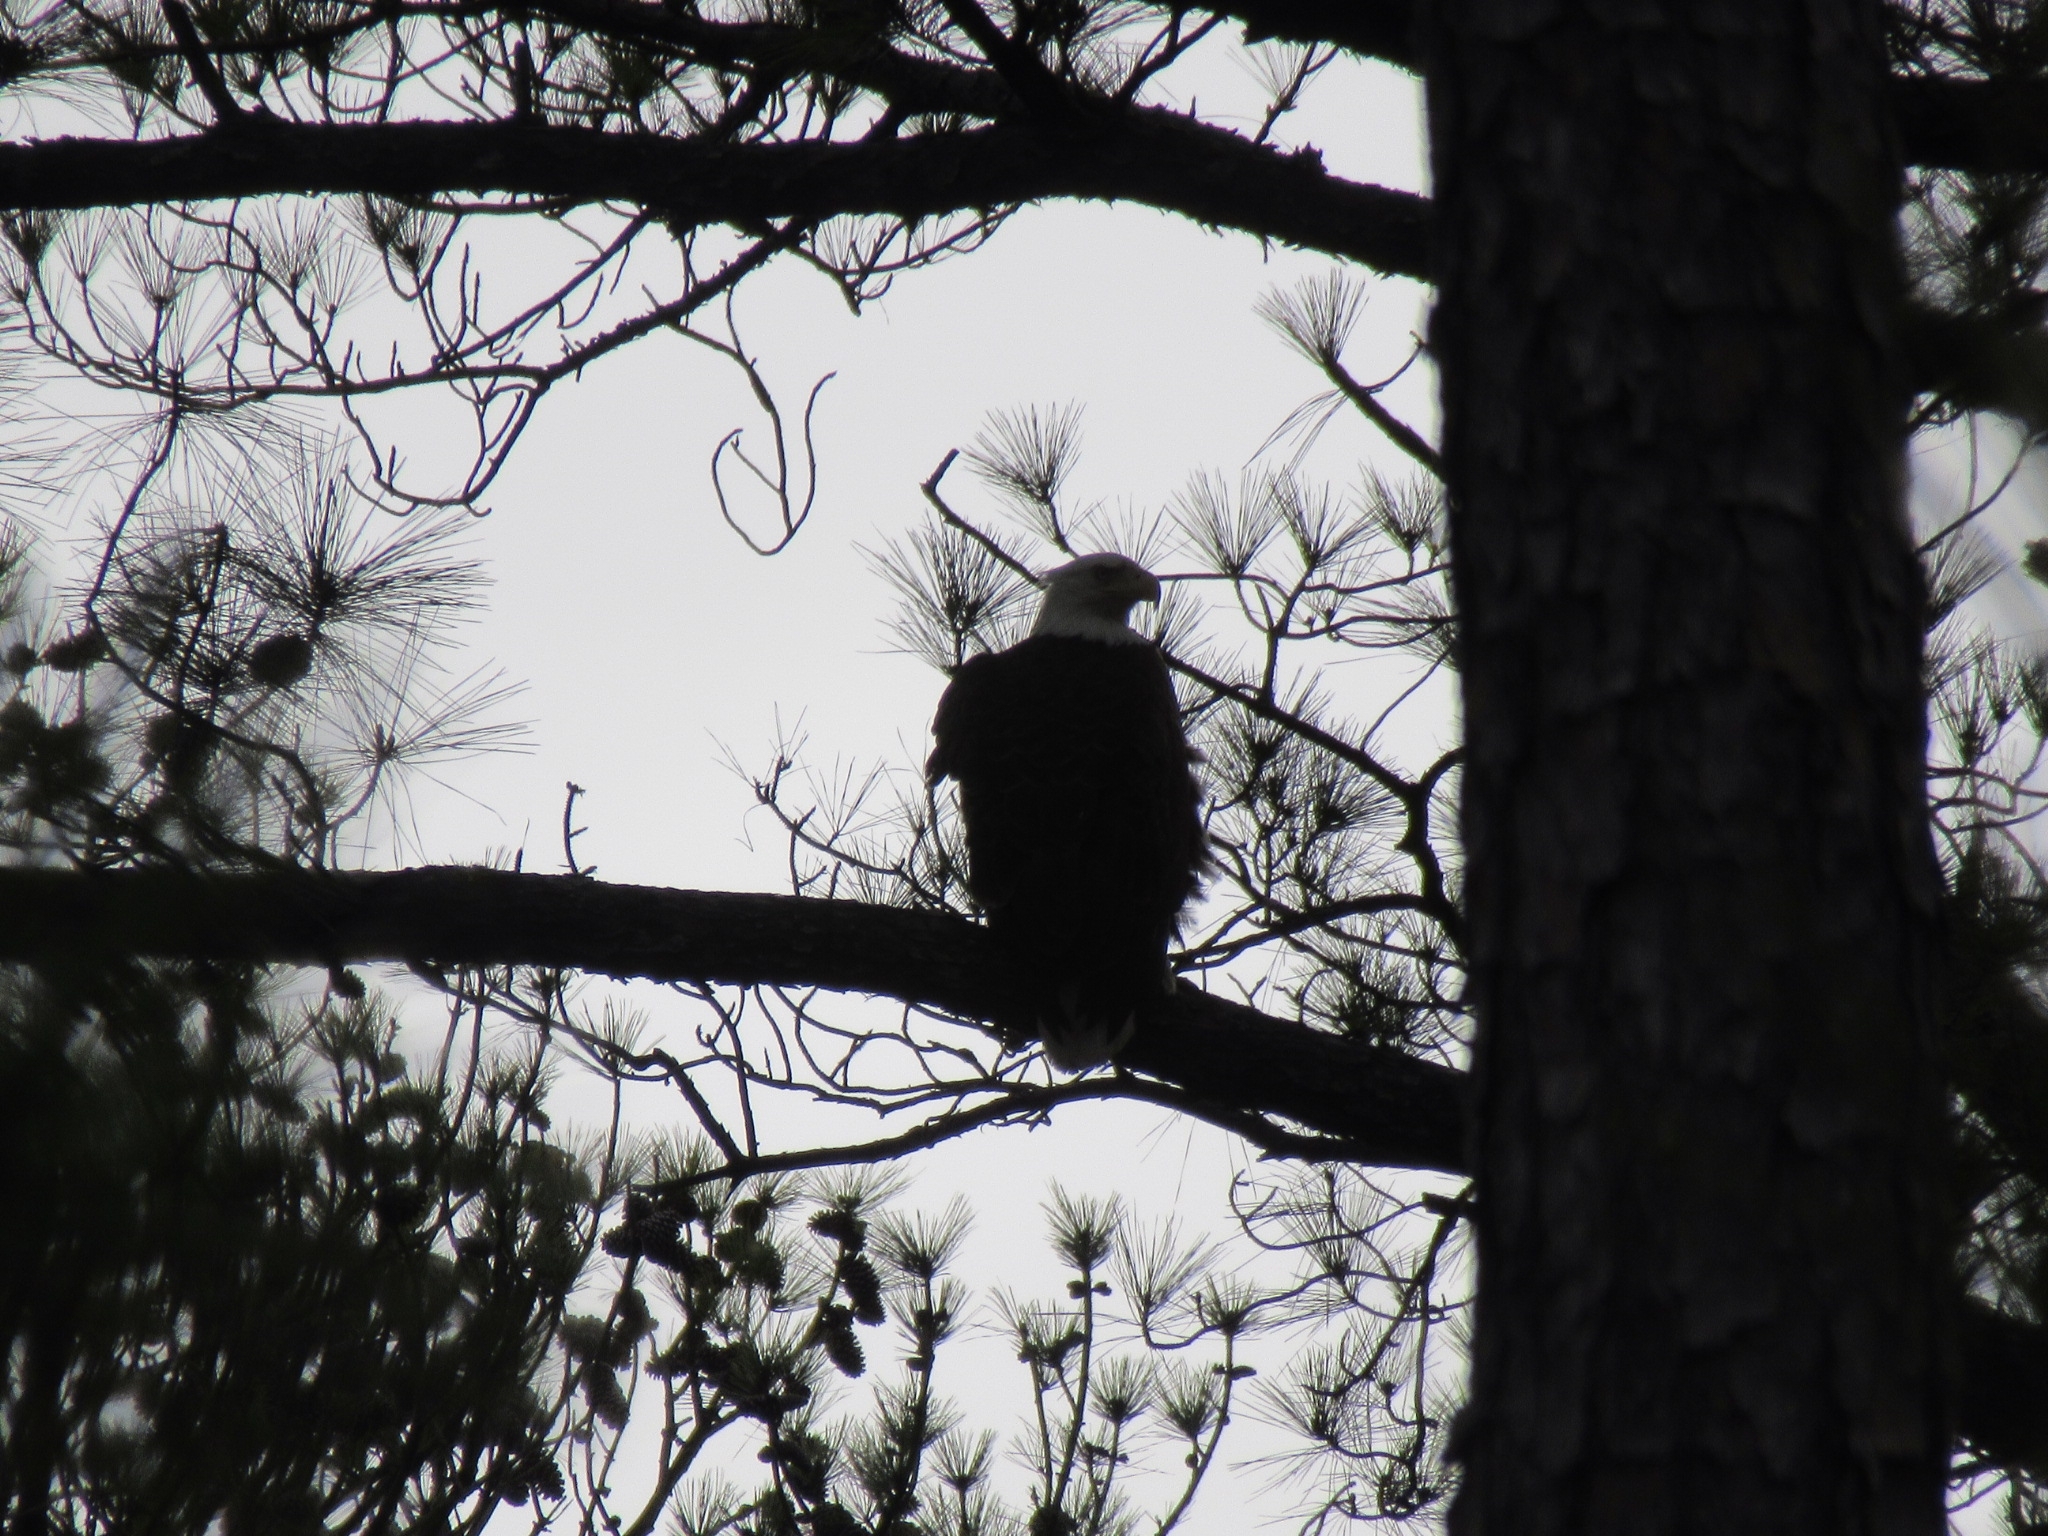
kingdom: Animalia
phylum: Chordata
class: Aves
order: Accipitriformes
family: Accipitridae
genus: Haliaeetus
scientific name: Haliaeetus leucocephalus
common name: Bald eagle
